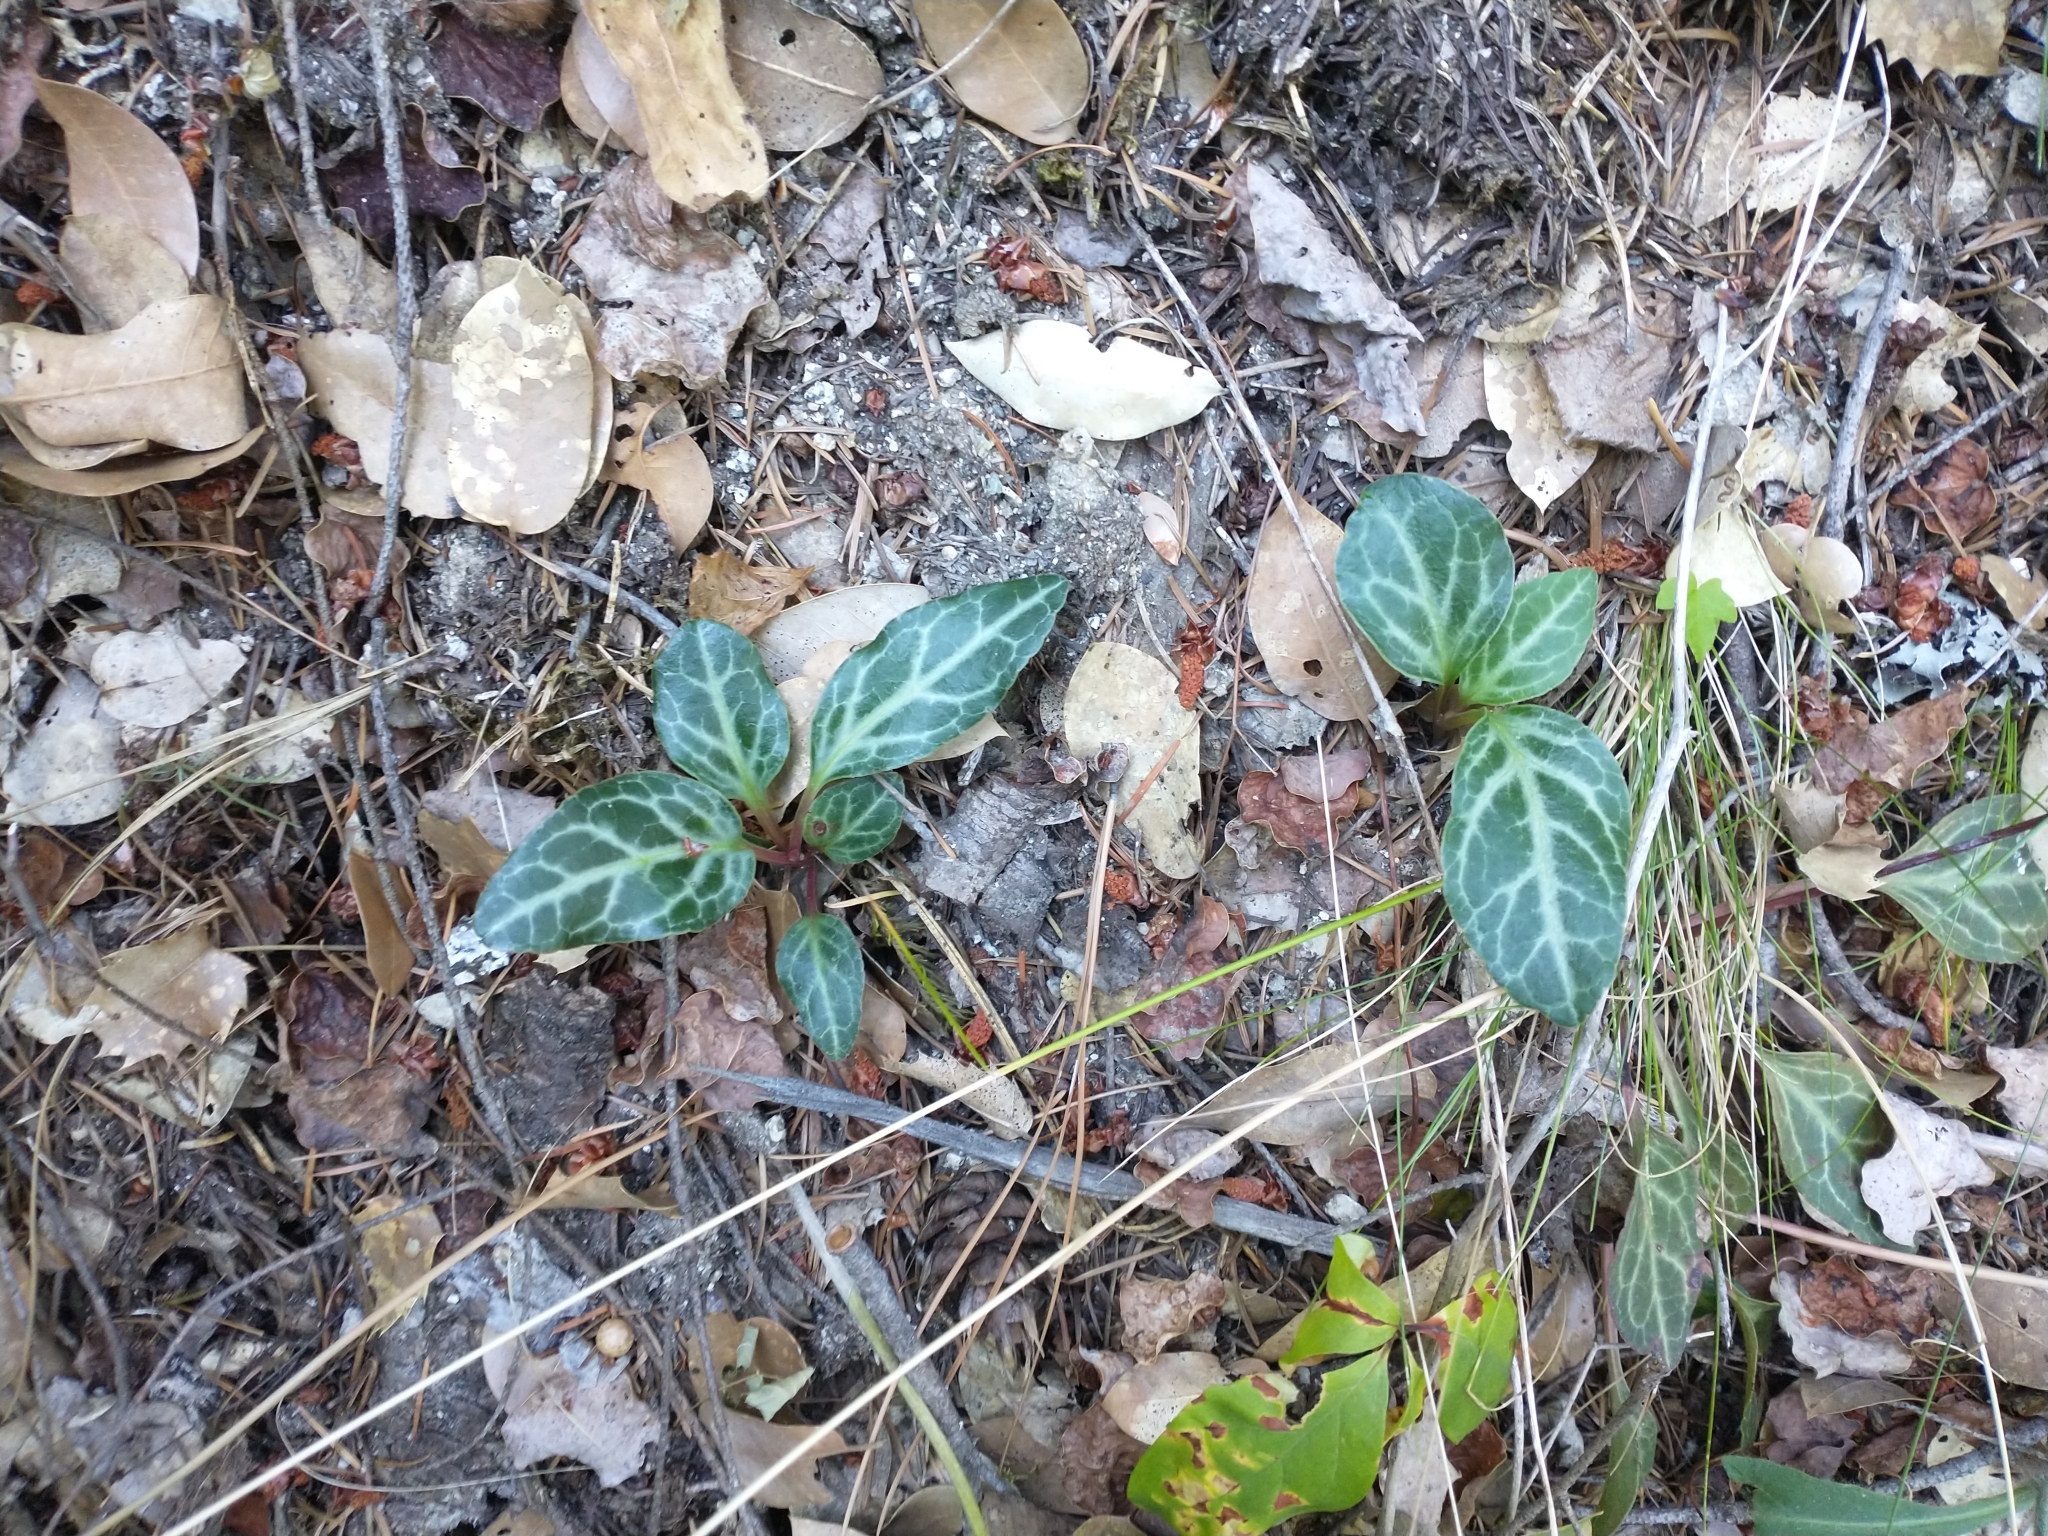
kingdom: Plantae
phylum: Tracheophyta
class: Magnoliopsida
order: Ericales
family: Ericaceae
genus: Pyrola
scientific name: Pyrola picta
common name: White-vein wintergreen
